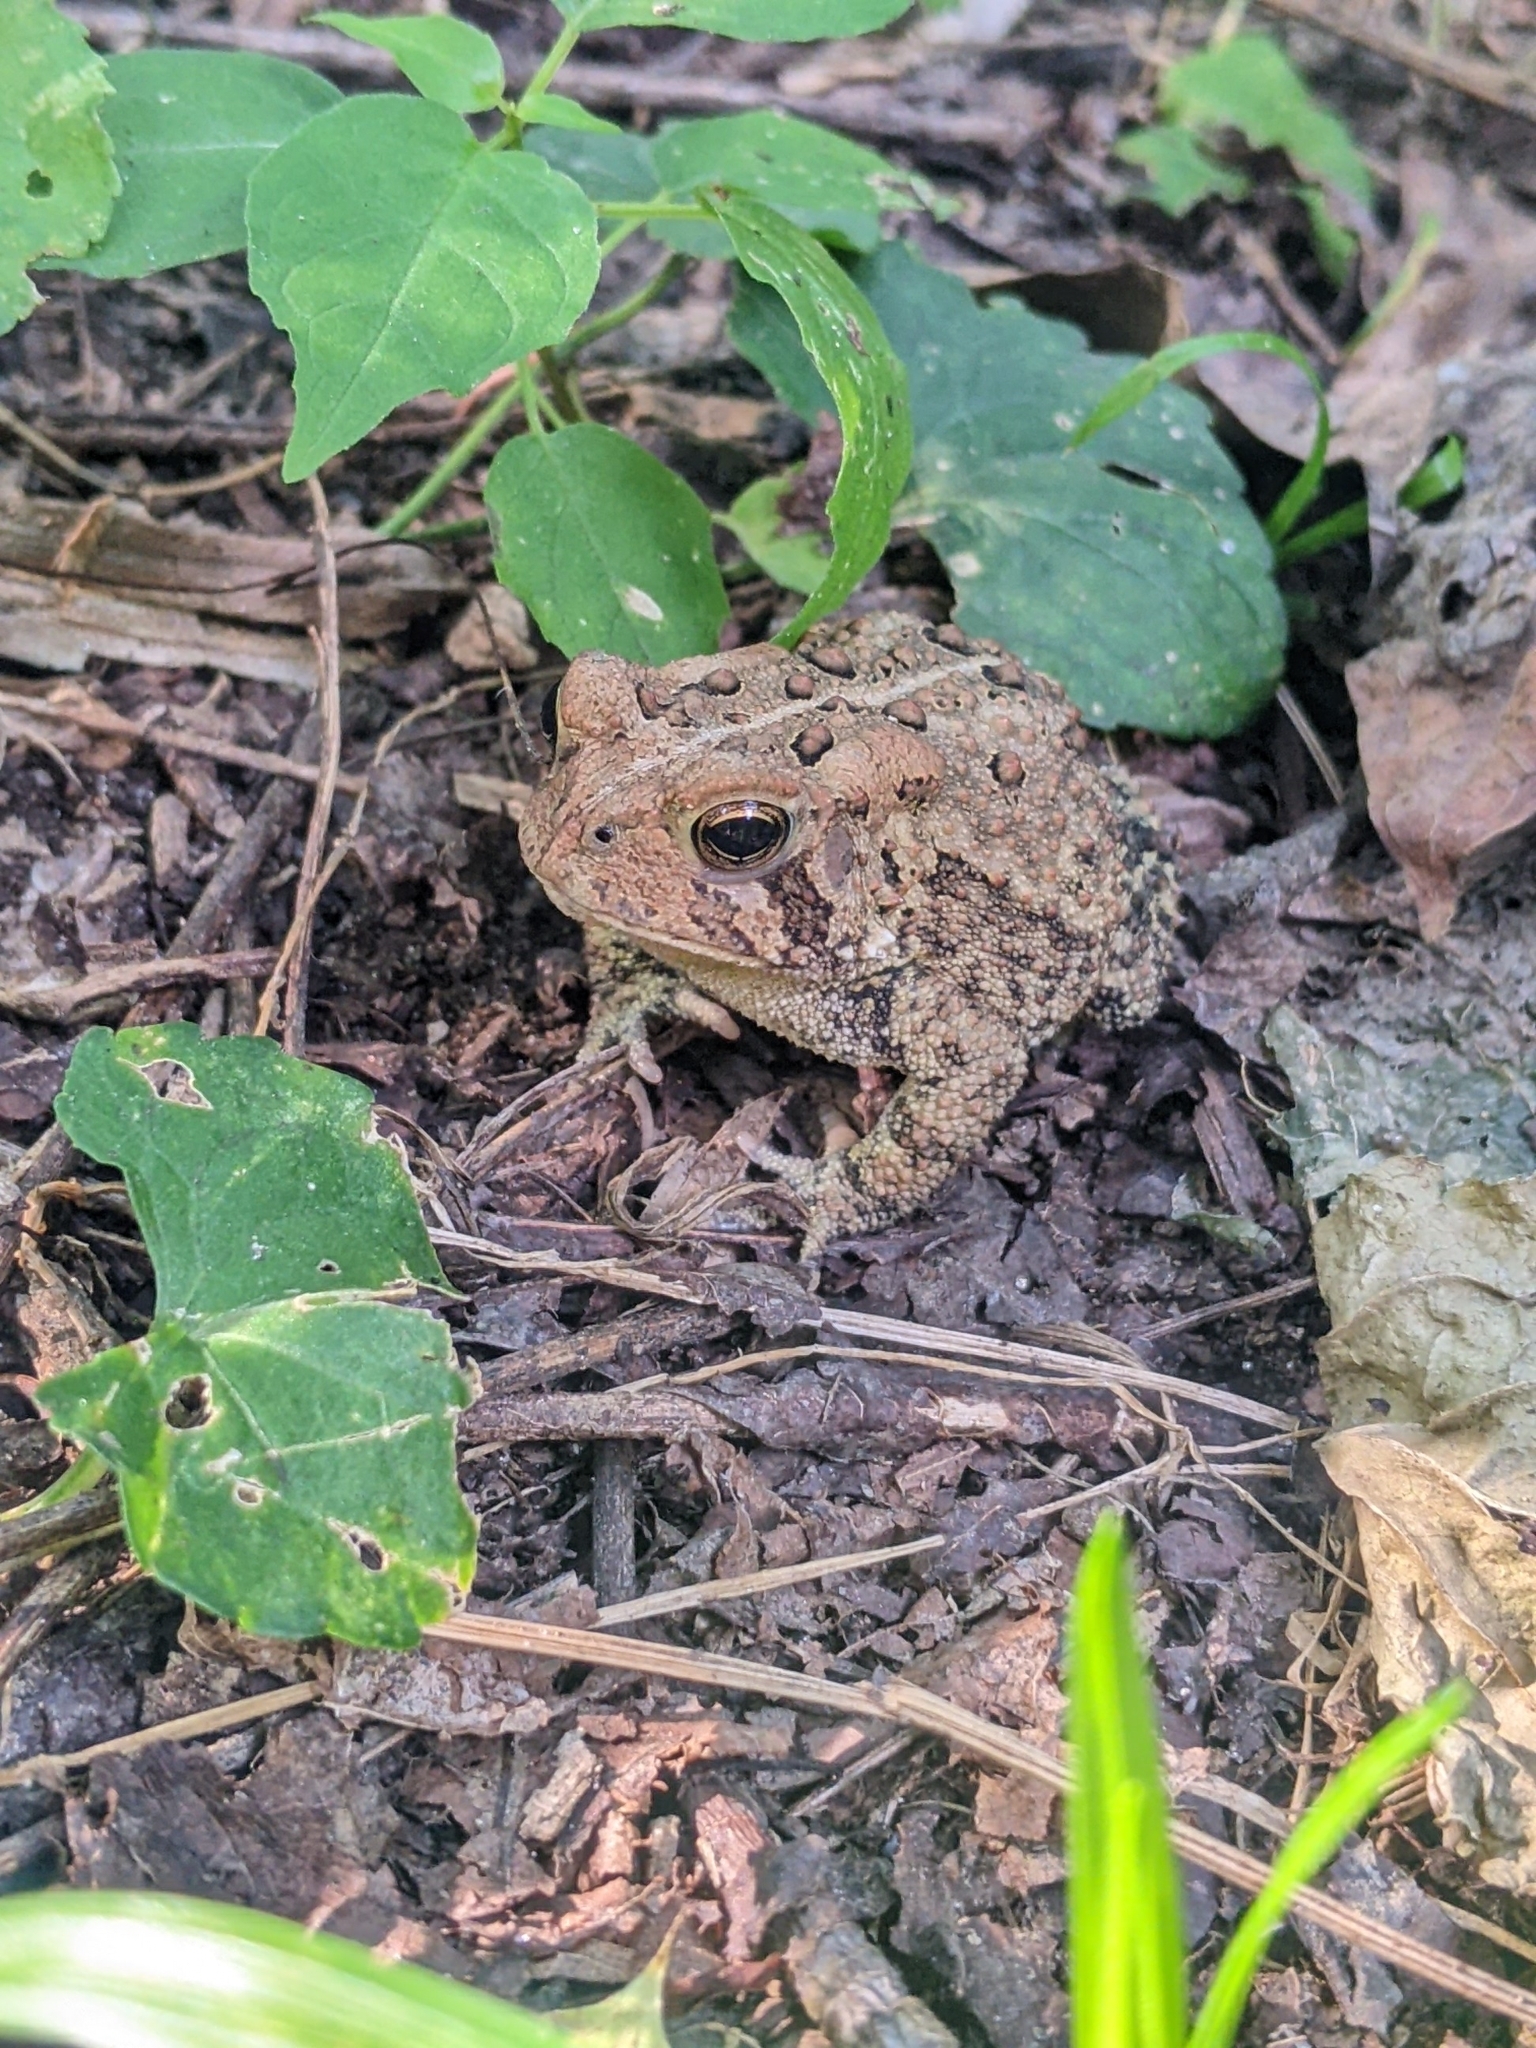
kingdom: Animalia
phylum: Chordata
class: Amphibia
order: Anura
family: Bufonidae
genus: Anaxyrus
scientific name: Anaxyrus americanus
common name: American toad
